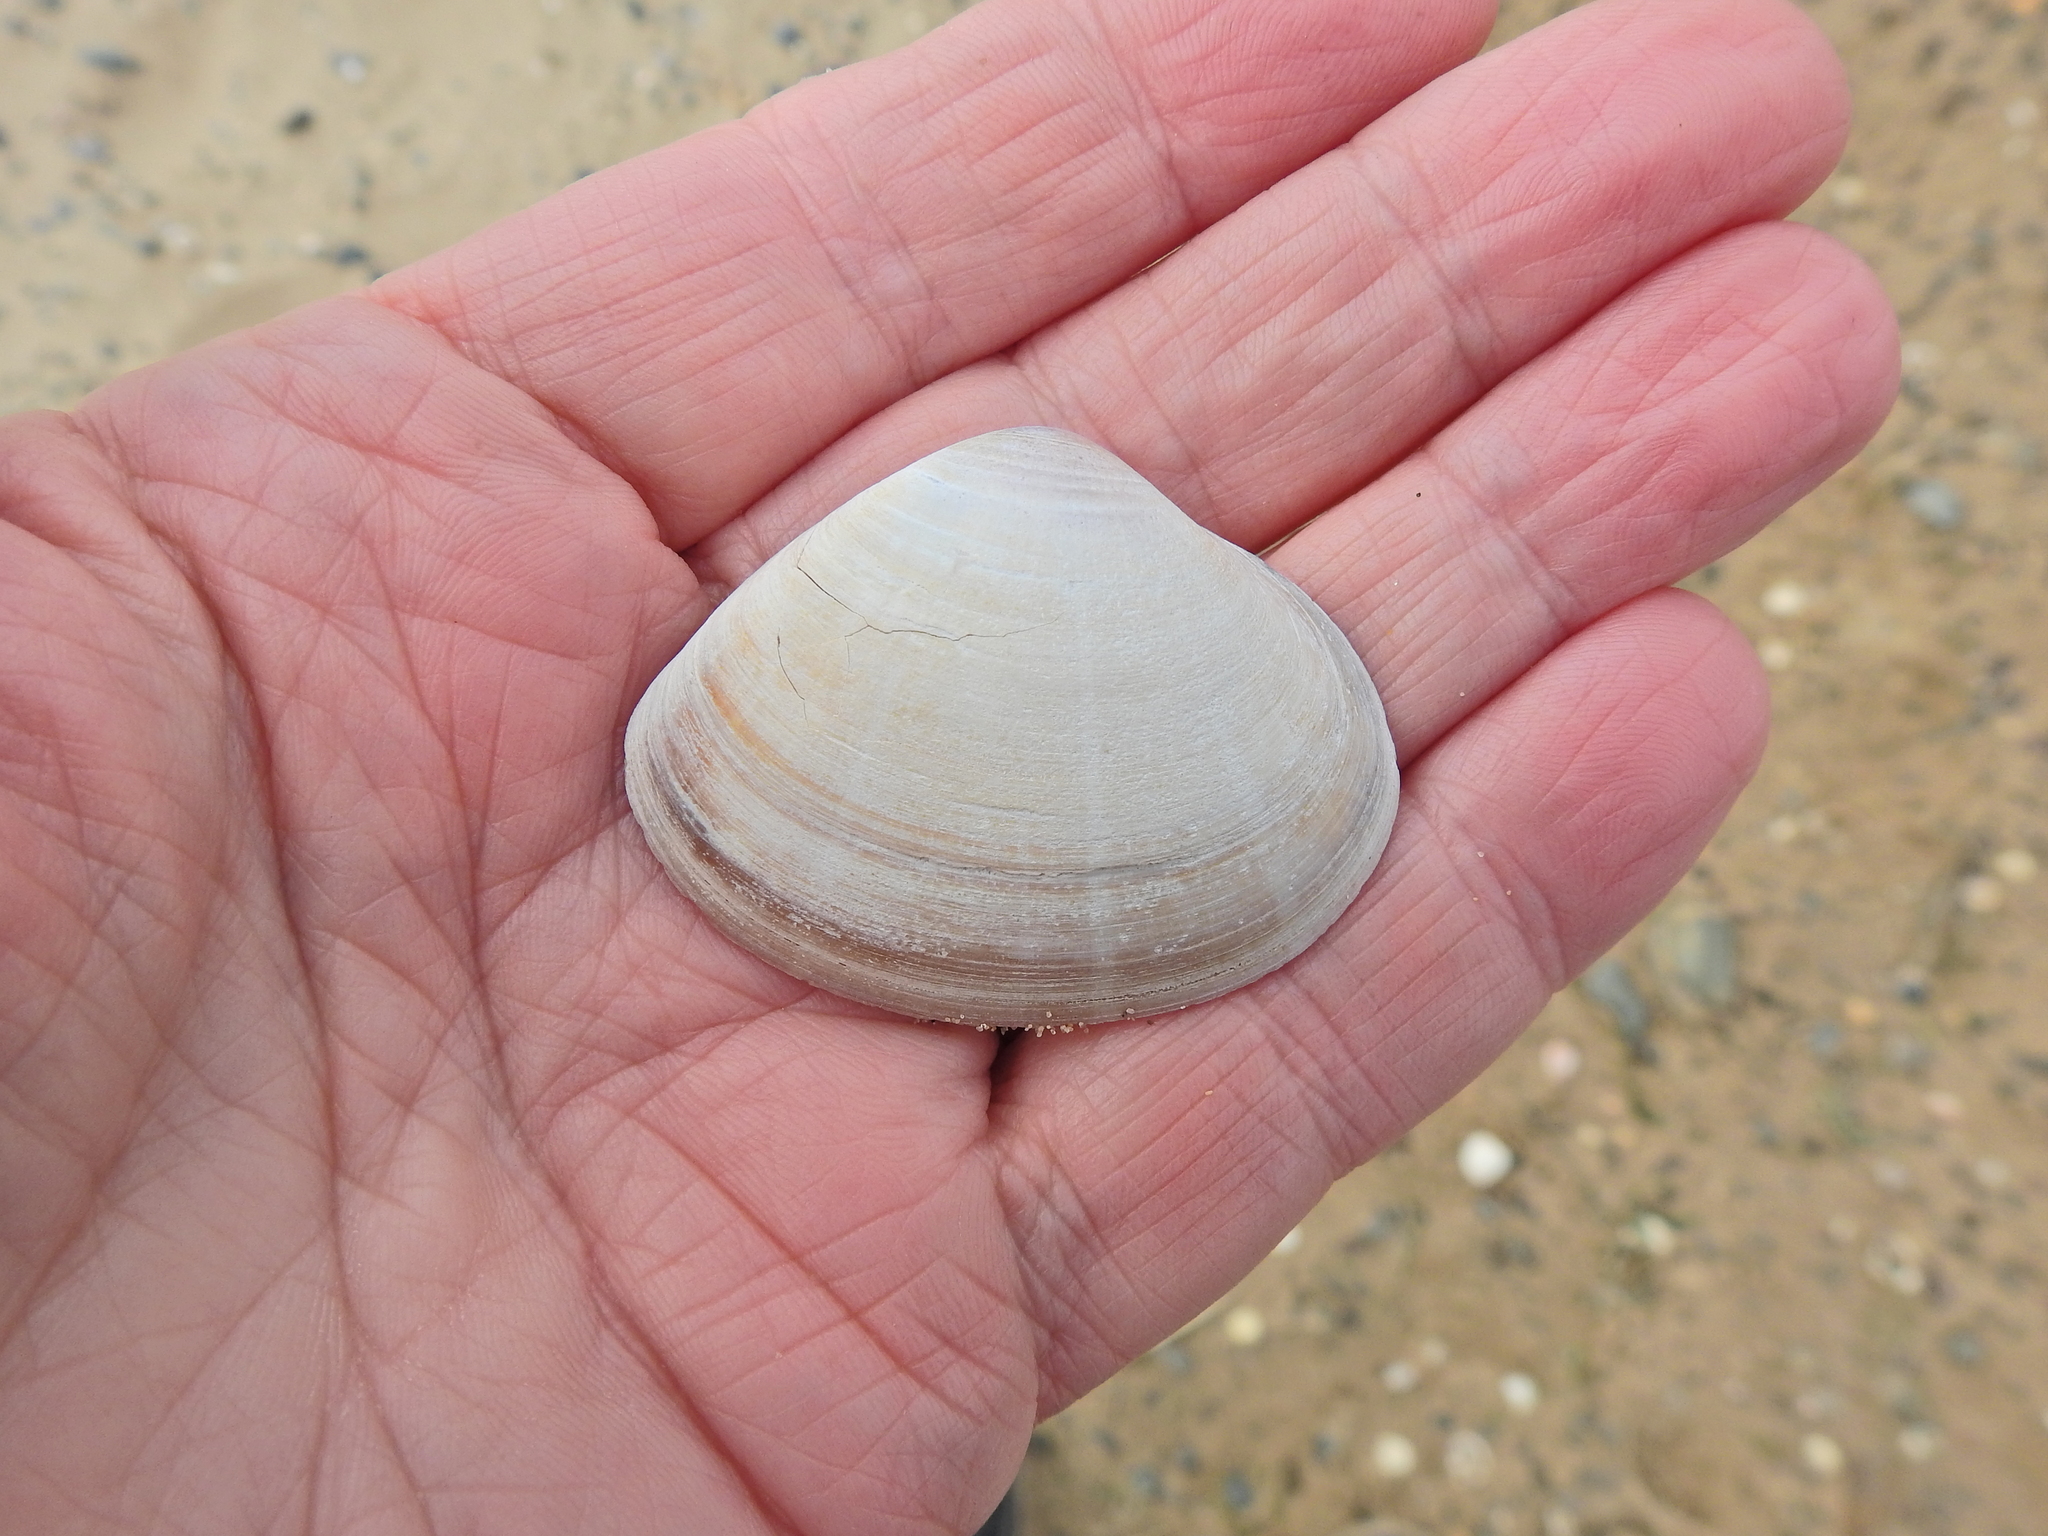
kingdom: Animalia
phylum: Mollusca
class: Bivalvia
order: Venerida
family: Mactridae
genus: Mactra
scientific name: Mactra stultorum
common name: Rayed trough shell
